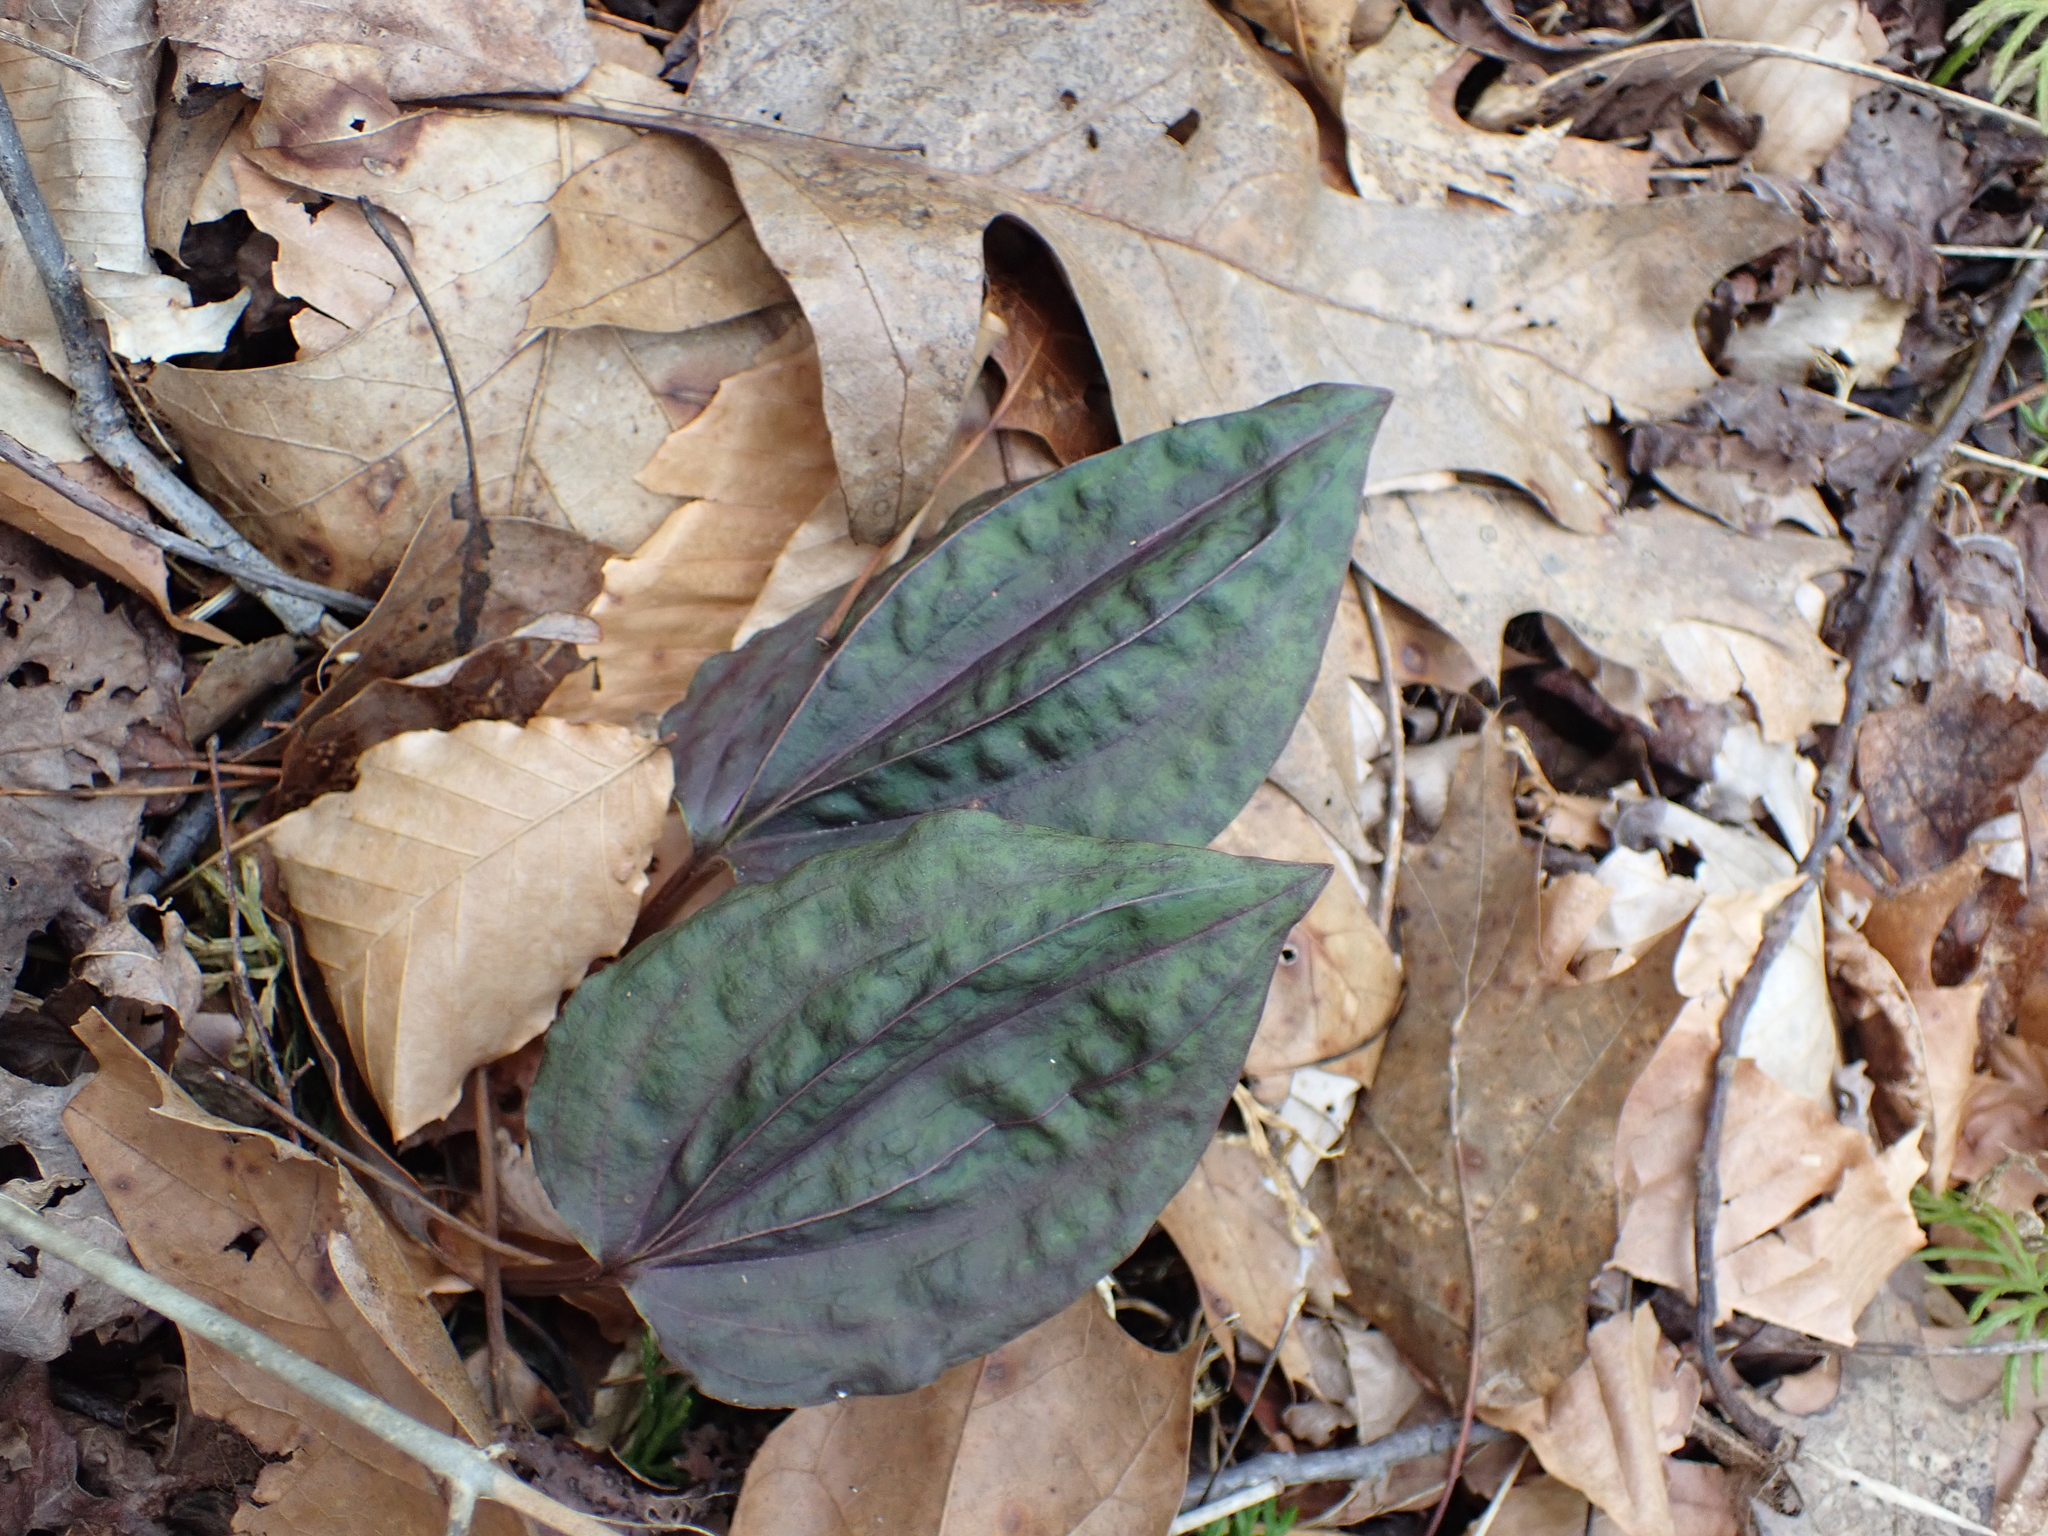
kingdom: Plantae
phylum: Tracheophyta
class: Liliopsida
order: Asparagales
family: Orchidaceae
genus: Tipularia
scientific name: Tipularia discolor
